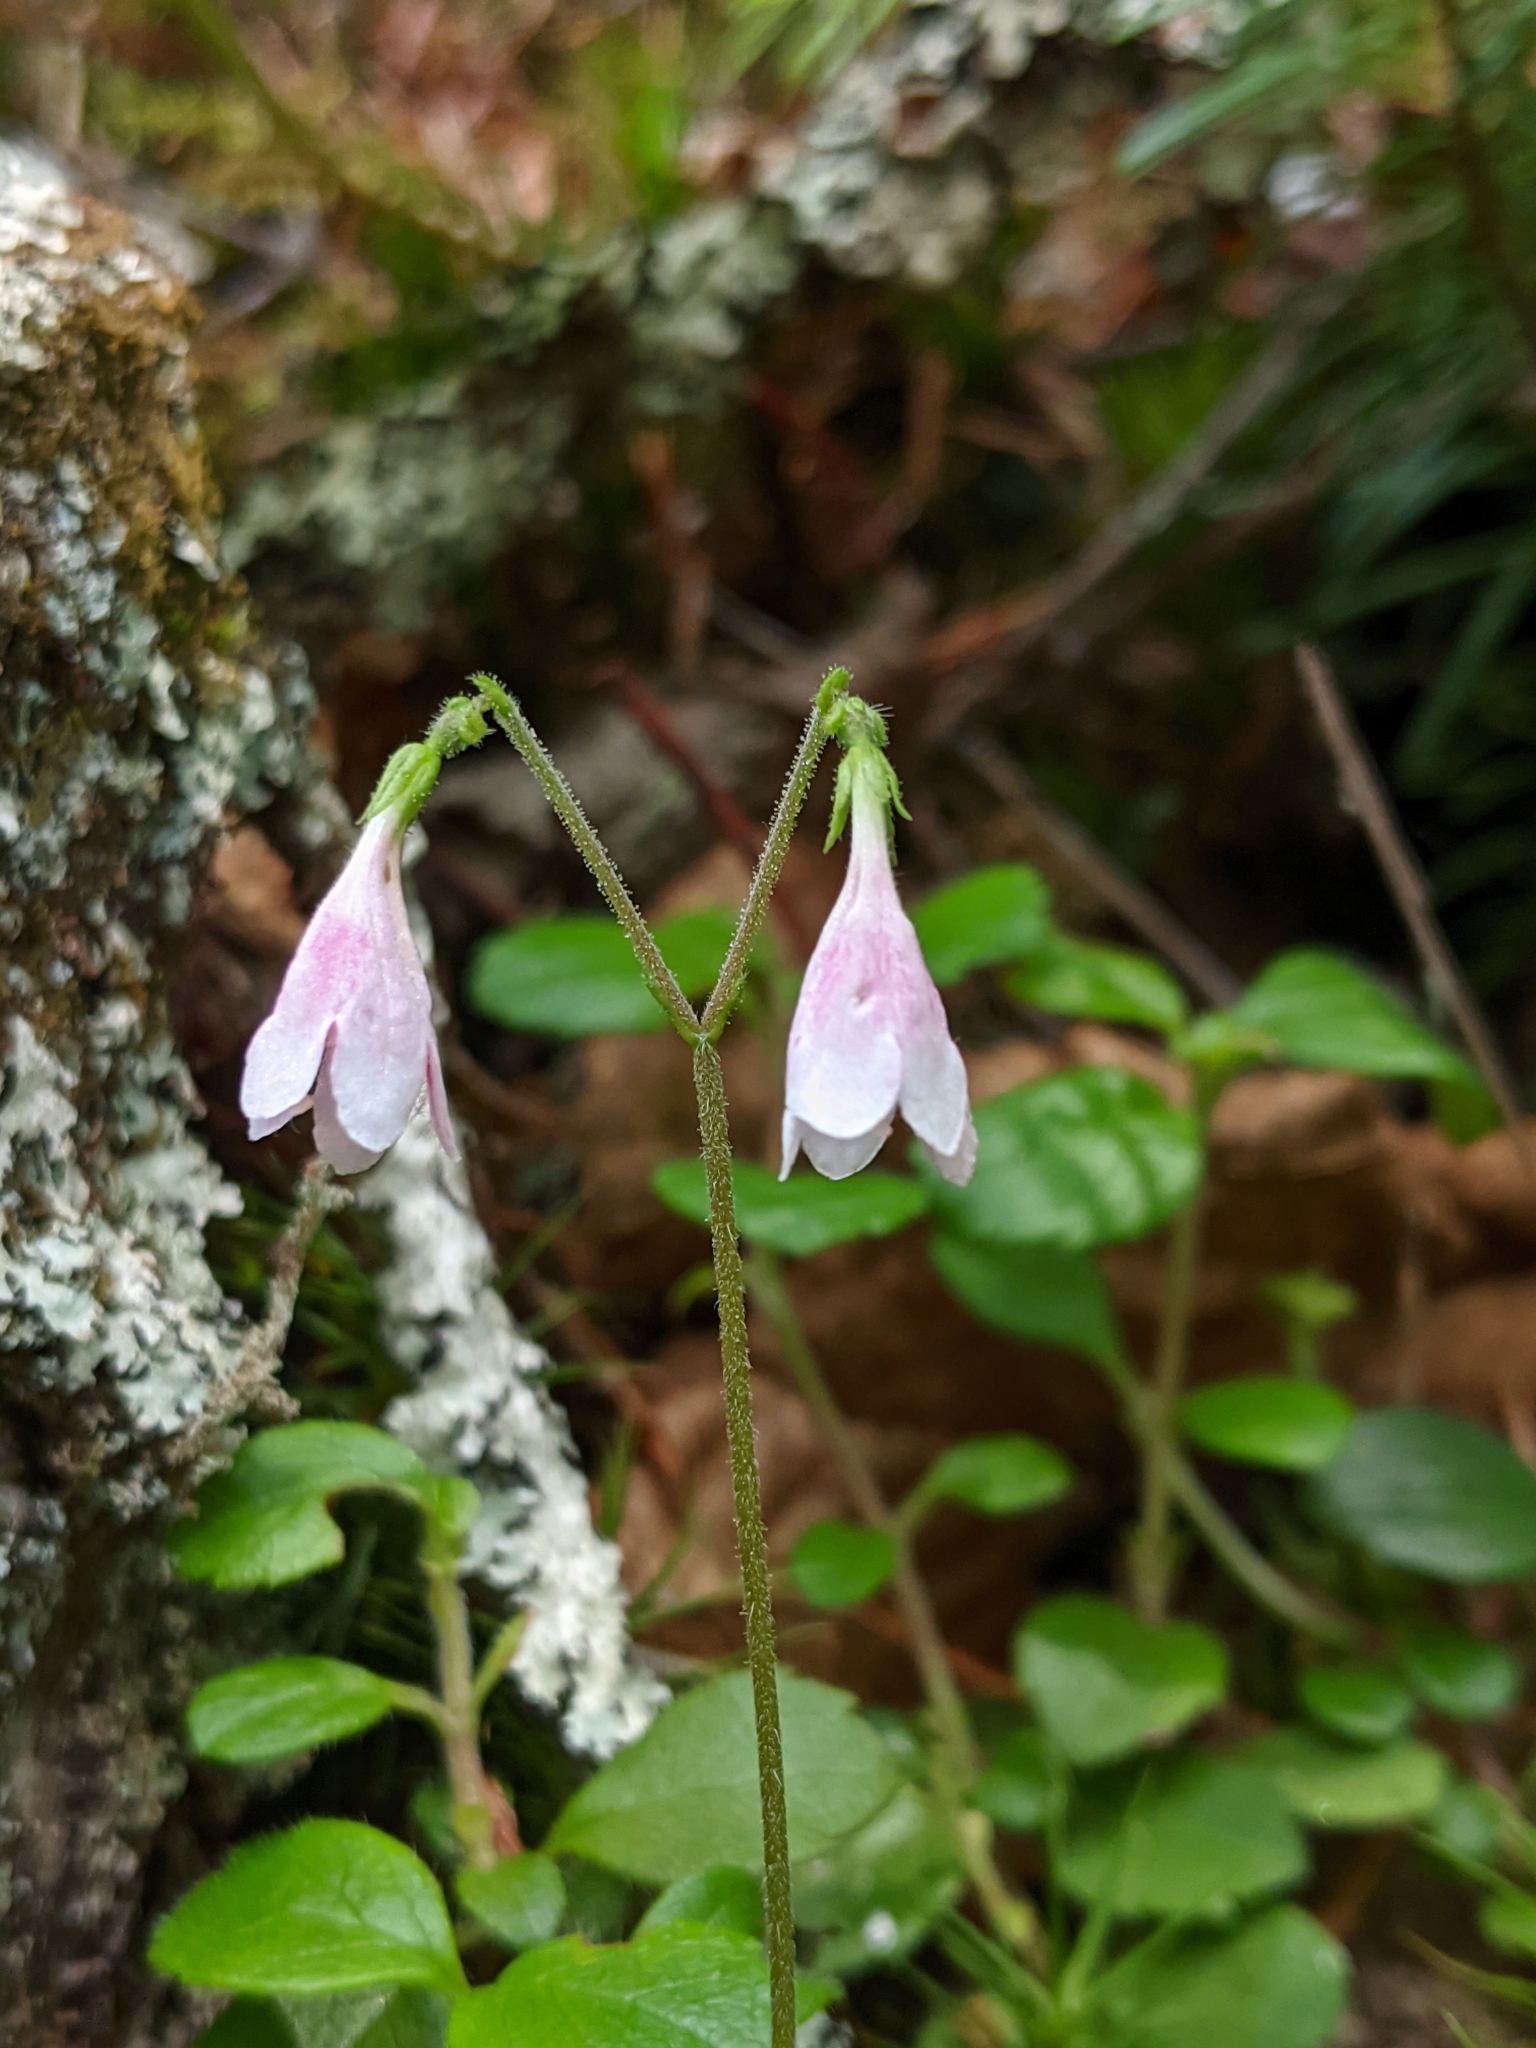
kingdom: Plantae
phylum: Tracheophyta
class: Magnoliopsida
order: Dipsacales
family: Caprifoliaceae
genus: Linnaea
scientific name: Linnaea borealis
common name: Twinflower
